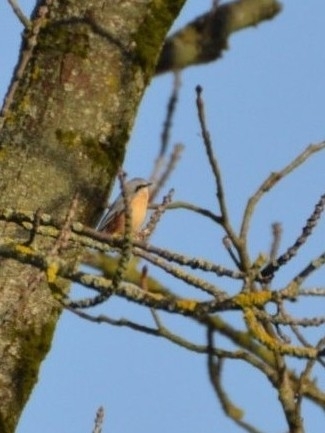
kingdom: Animalia
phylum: Chordata
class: Aves
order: Passeriformes
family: Sittidae
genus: Sitta
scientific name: Sitta europaea
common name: Eurasian nuthatch
